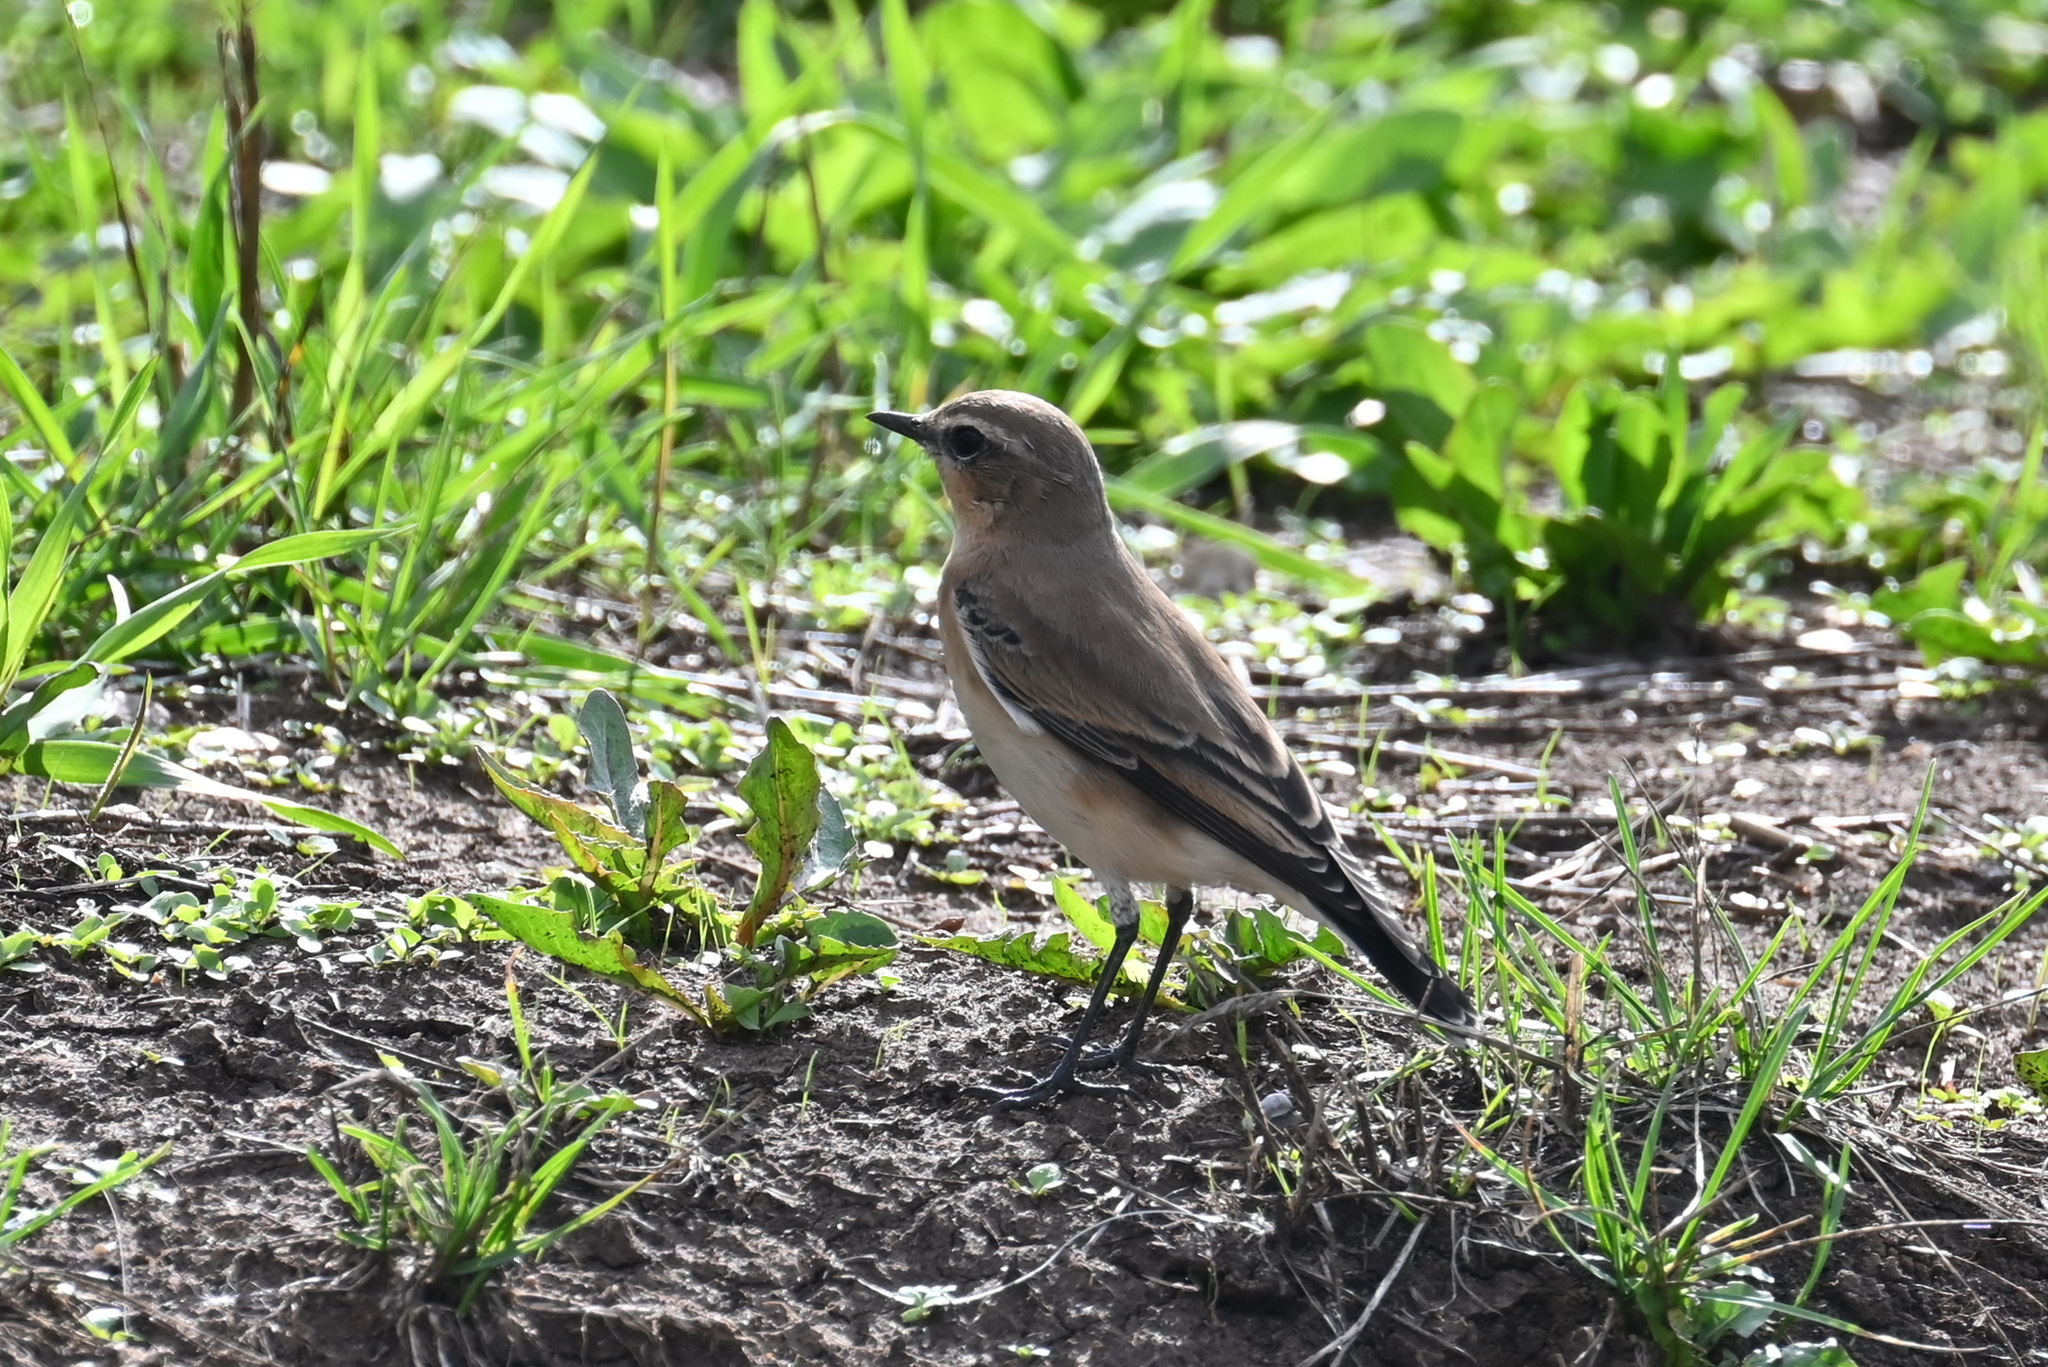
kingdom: Animalia
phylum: Chordata
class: Aves
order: Passeriformes
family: Muscicapidae
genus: Oenanthe
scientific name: Oenanthe oenanthe
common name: Northern wheatear
